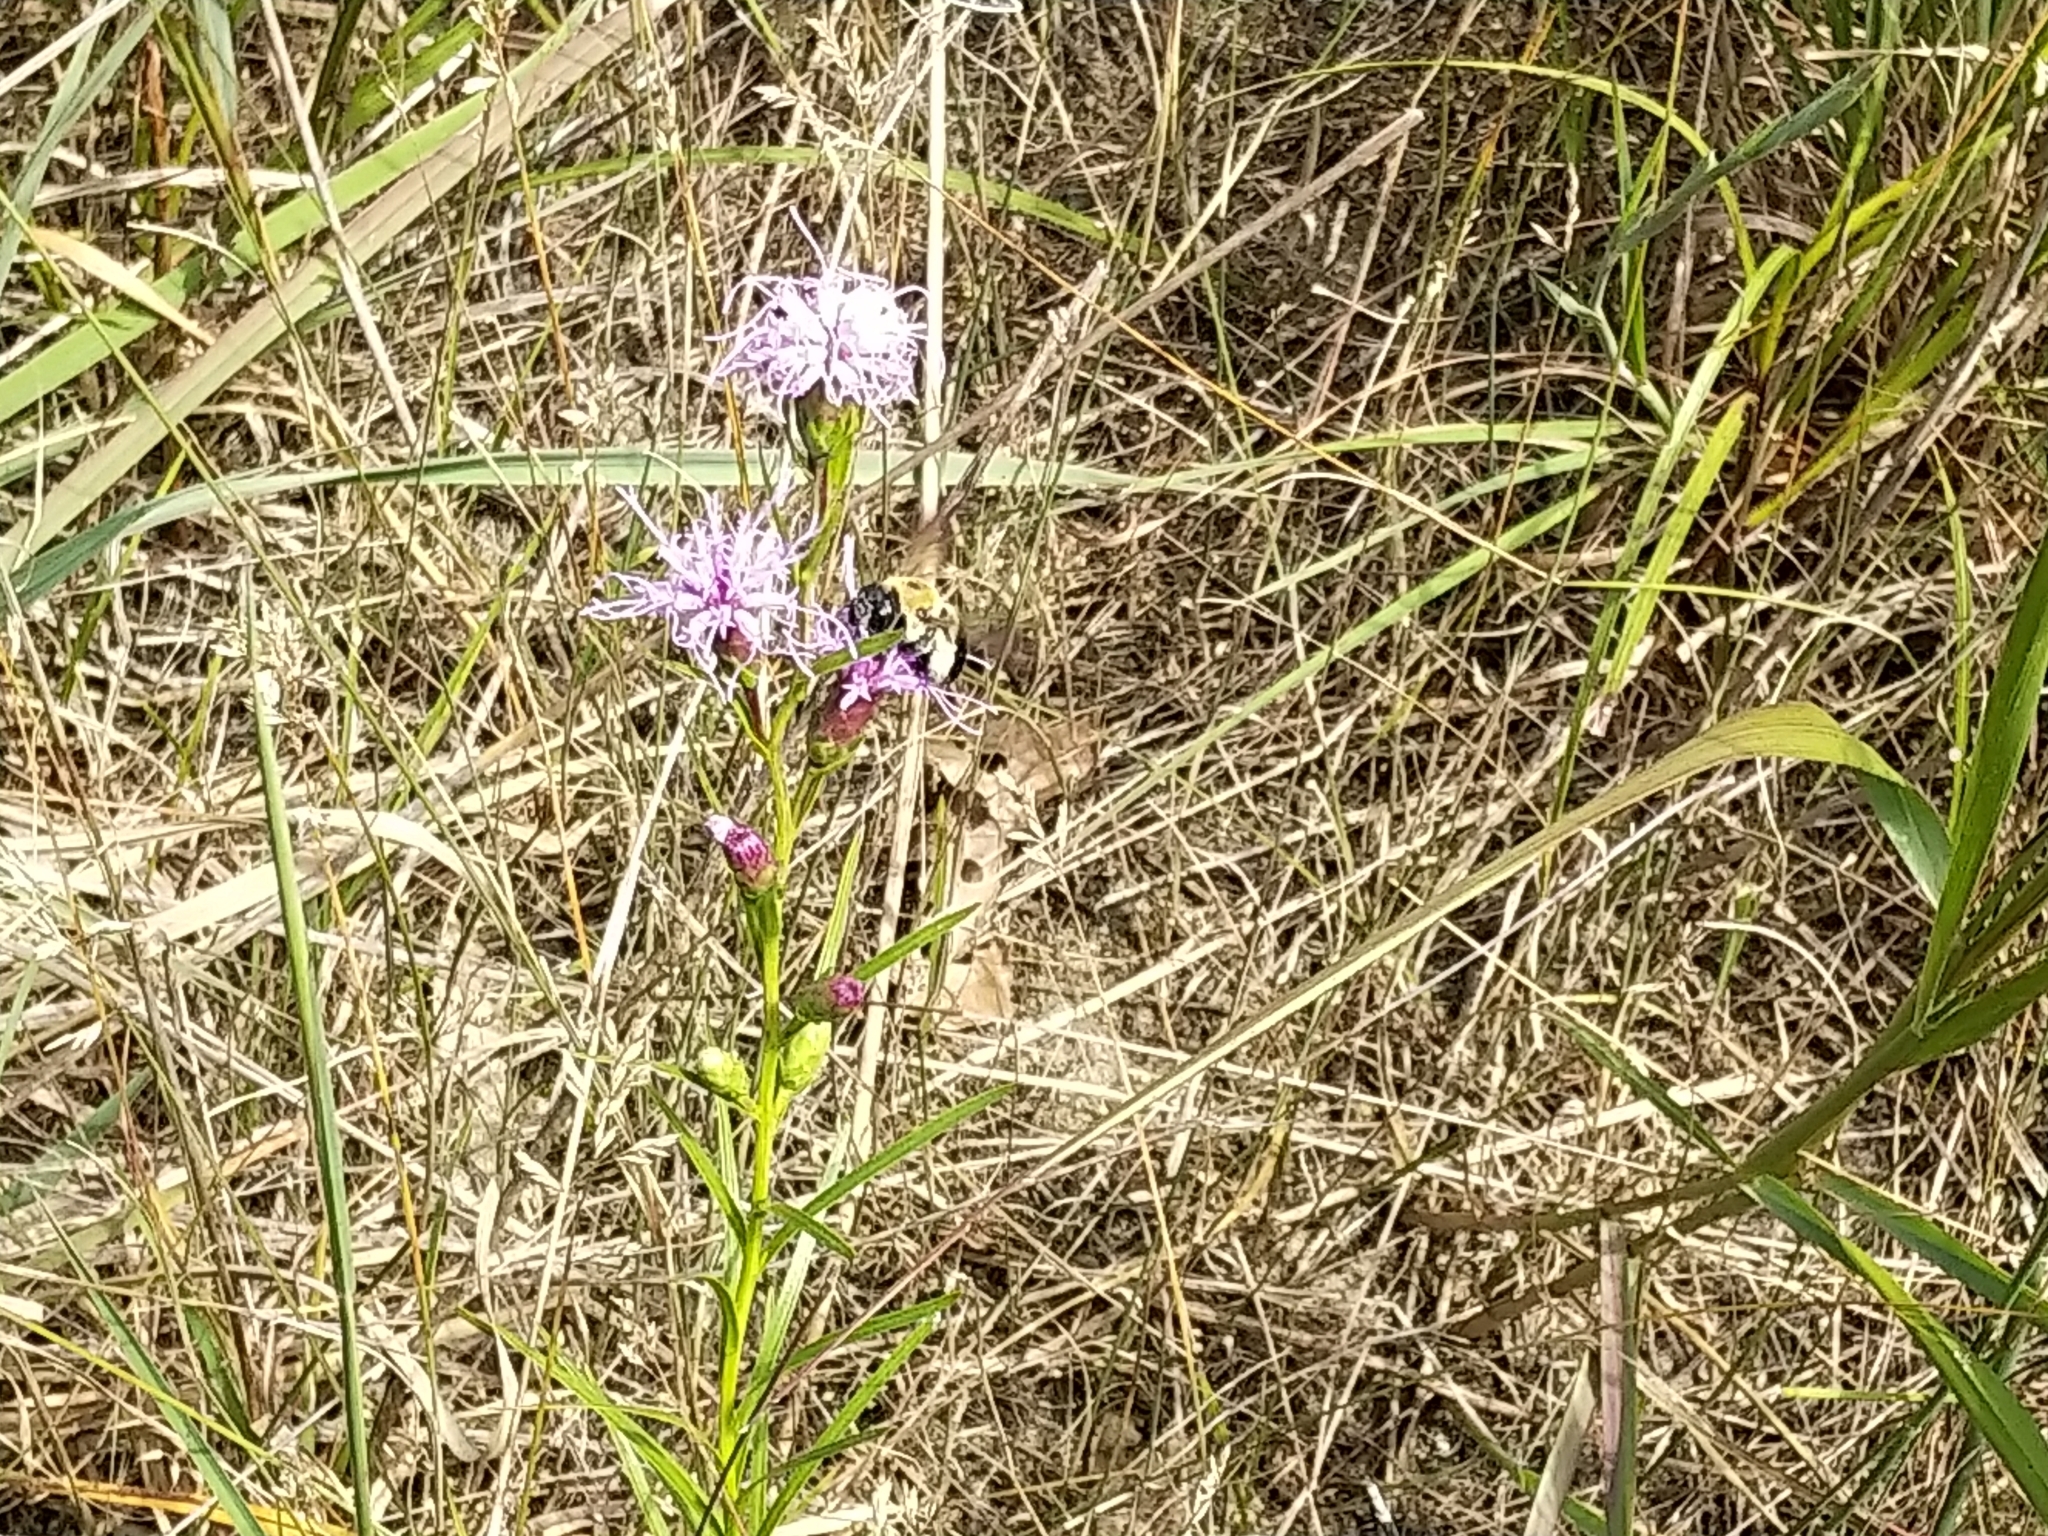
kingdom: Plantae
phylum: Tracheophyta
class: Magnoliopsida
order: Asterales
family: Asteraceae
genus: Liatris
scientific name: Liatris cylindracea
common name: Few-head blazingstar
